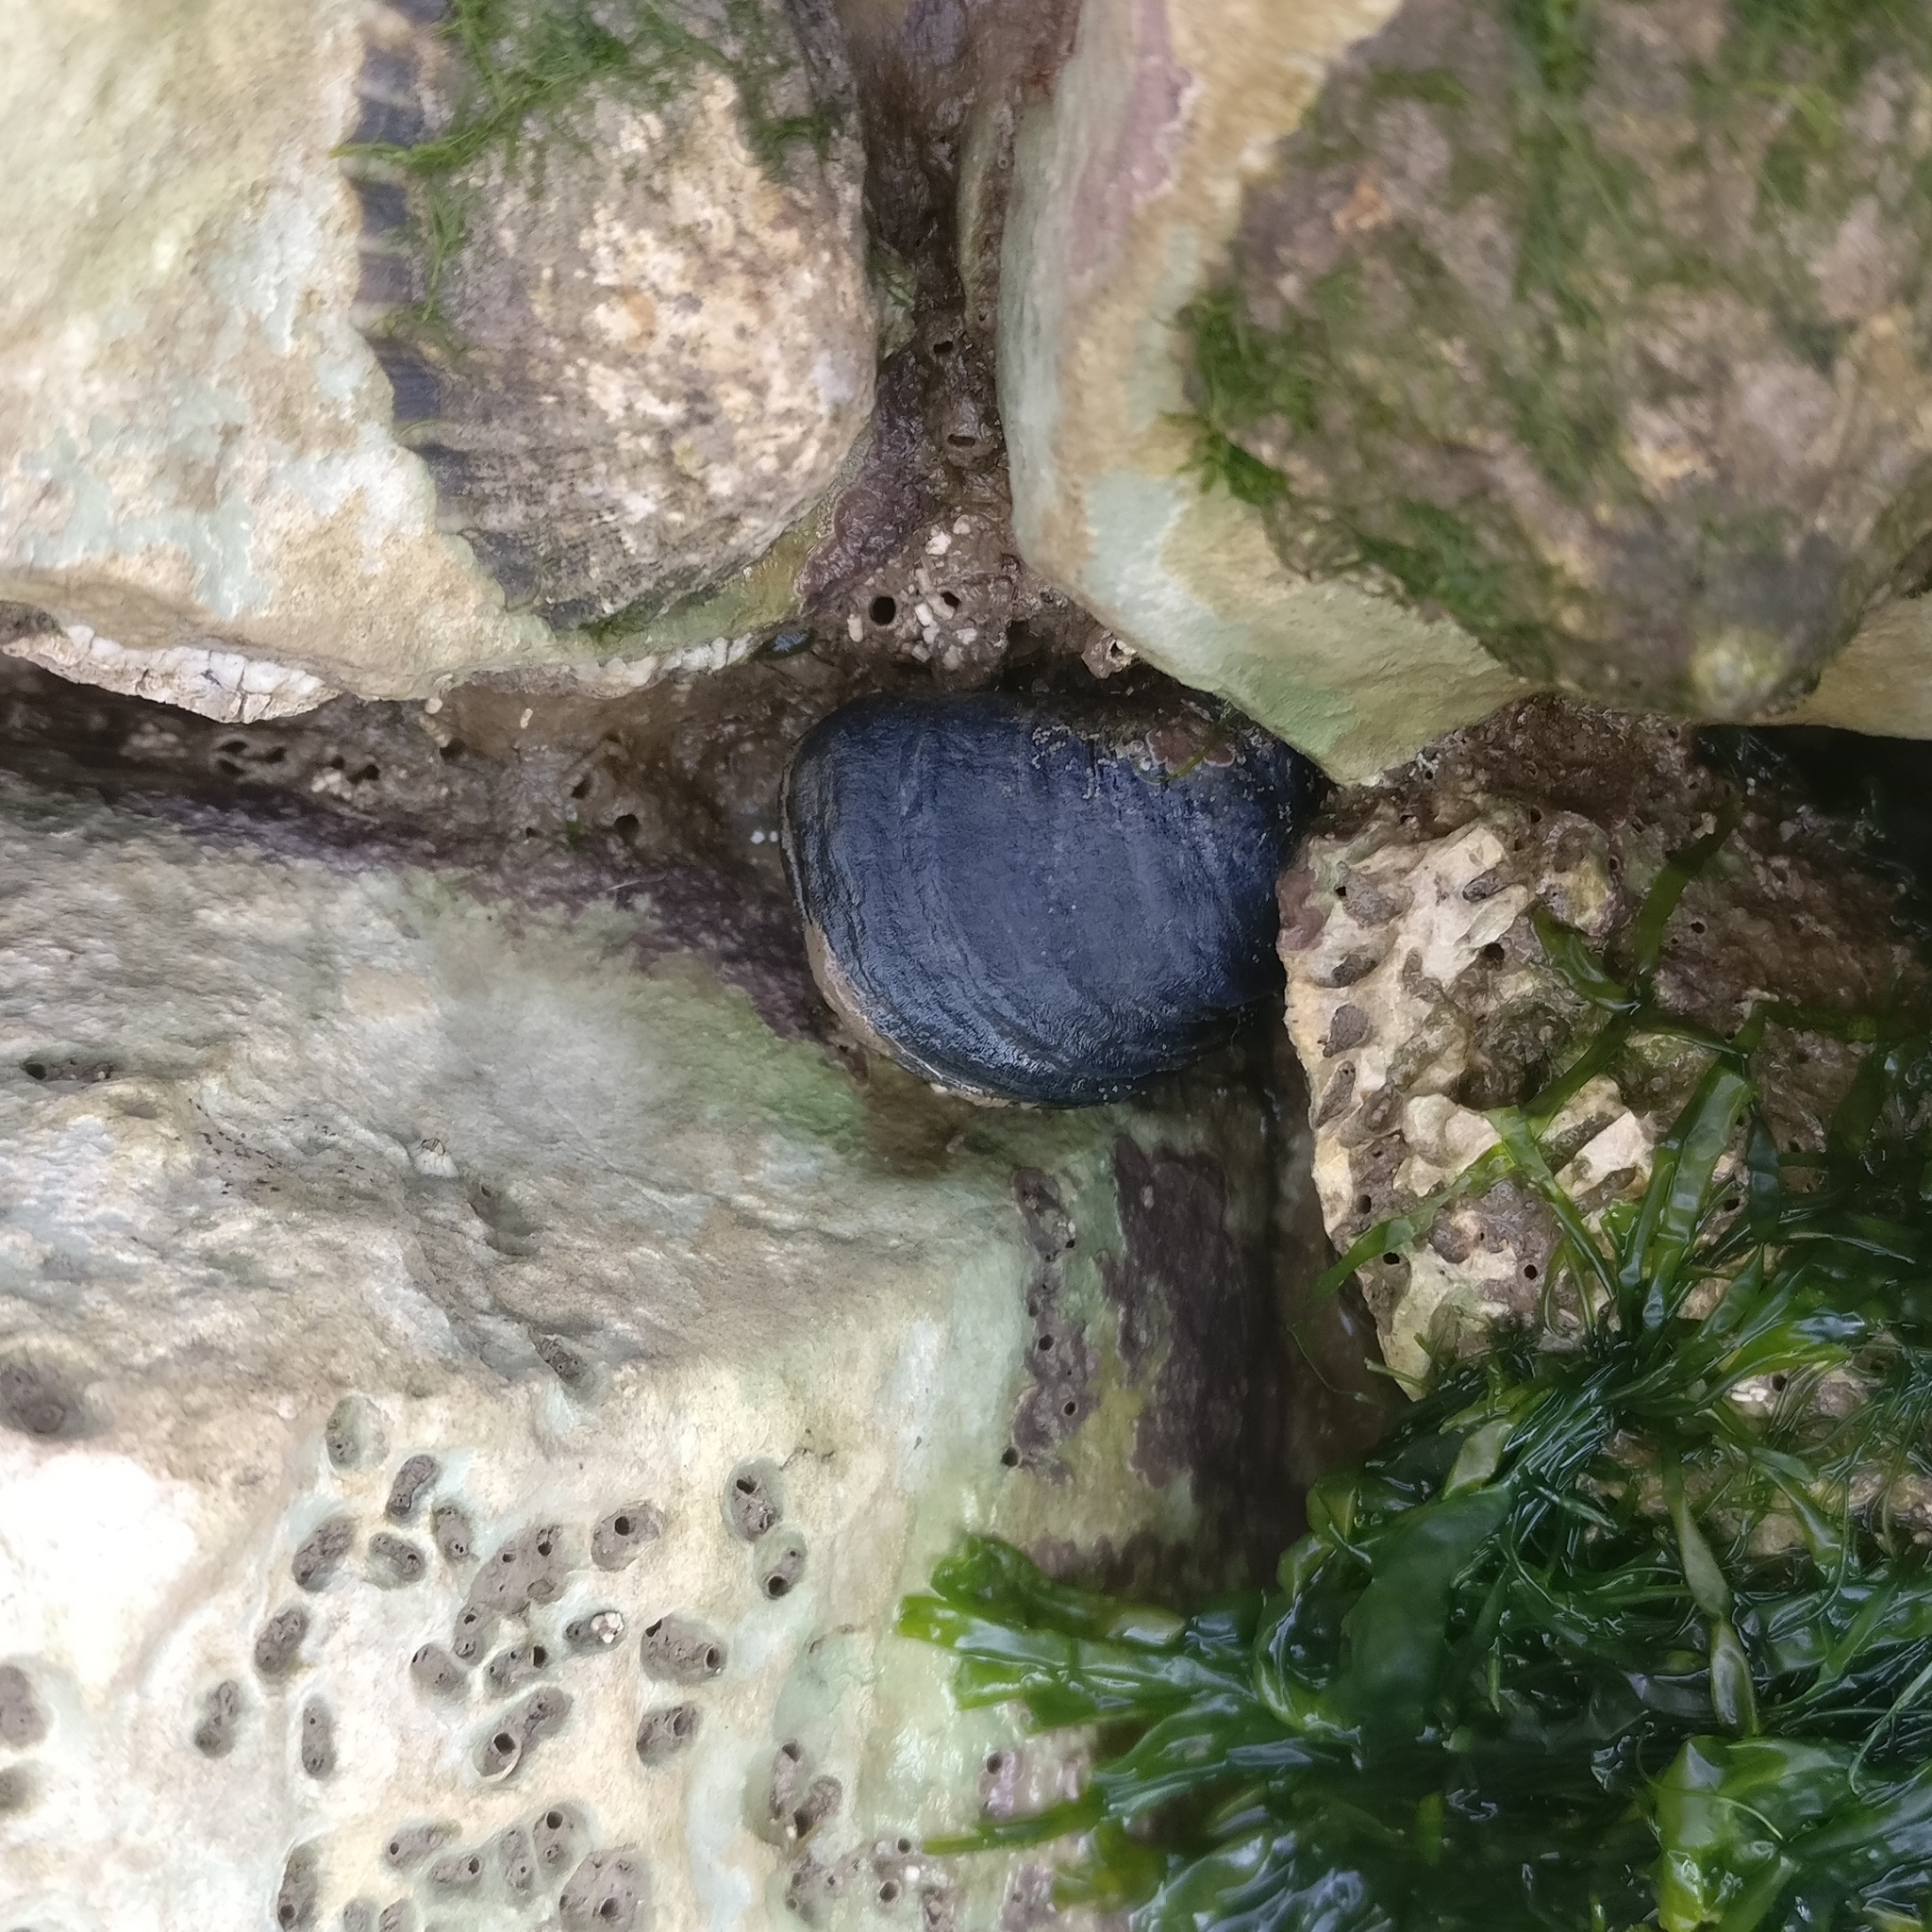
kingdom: Animalia
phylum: Mollusca
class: Bivalvia
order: Mytilida
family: Mytilidae
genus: Mytilus
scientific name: Mytilus edulis
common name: Blue mussel
